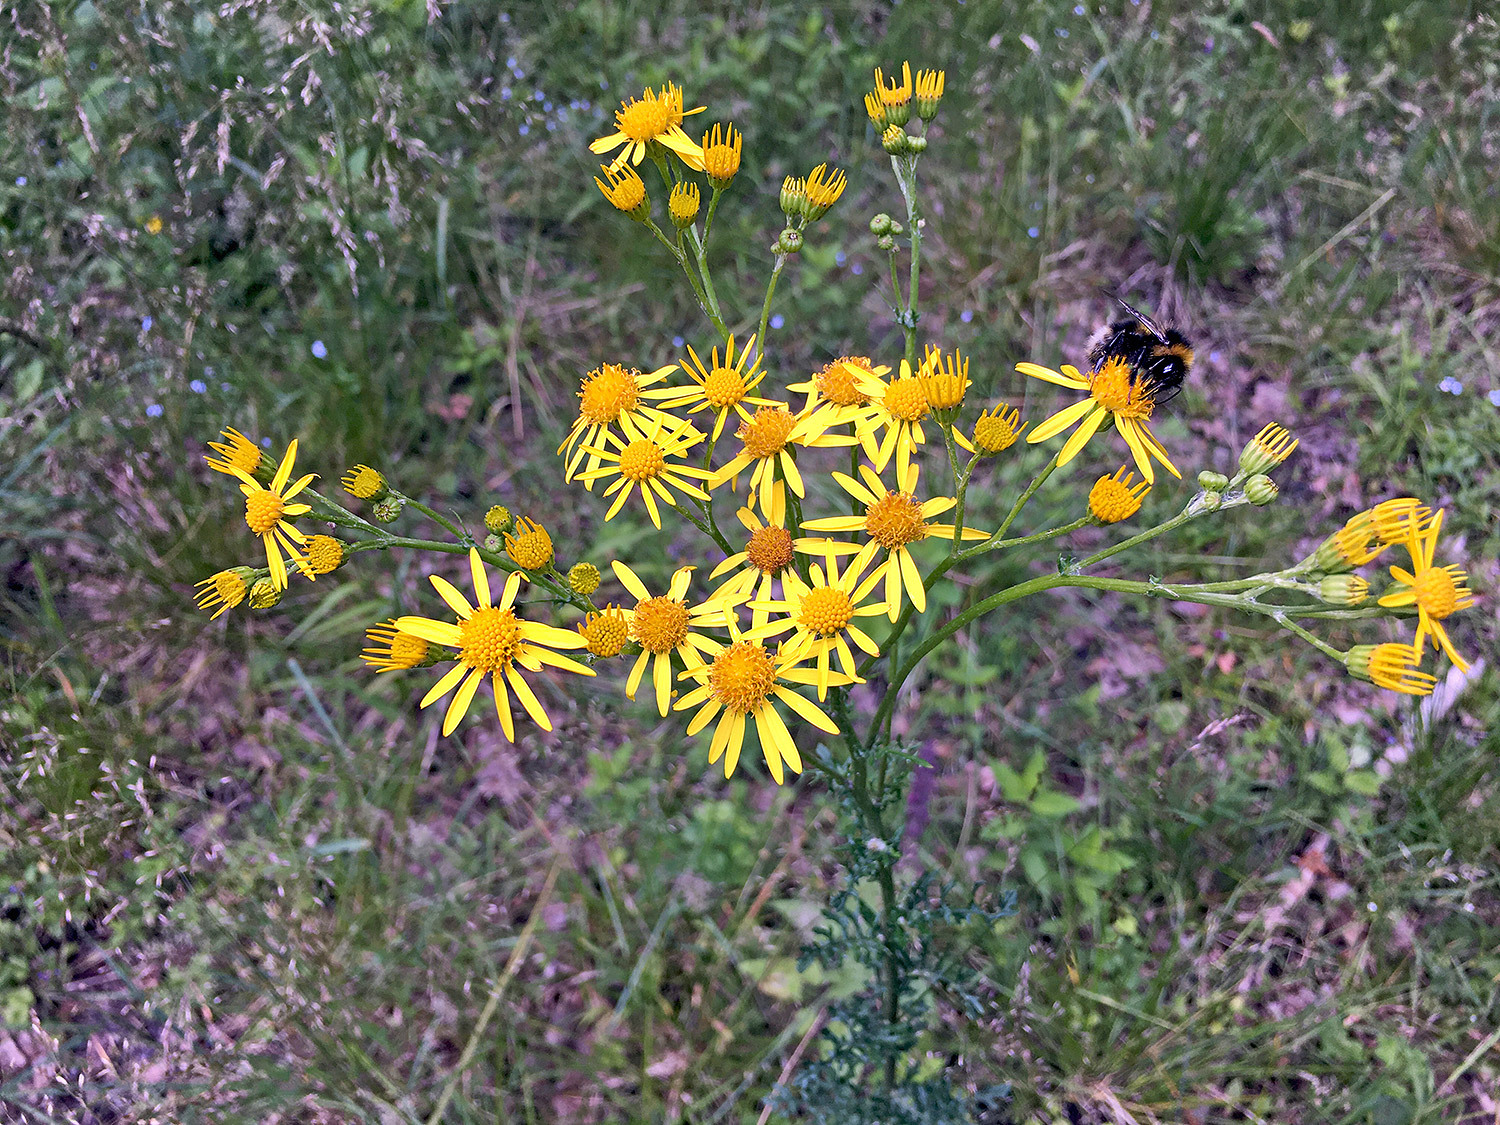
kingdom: Plantae
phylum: Tracheophyta
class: Magnoliopsida
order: Asterales
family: Asteraceae
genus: Jacobaea
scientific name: Jacobaea vulgaris
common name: Stinking willie
